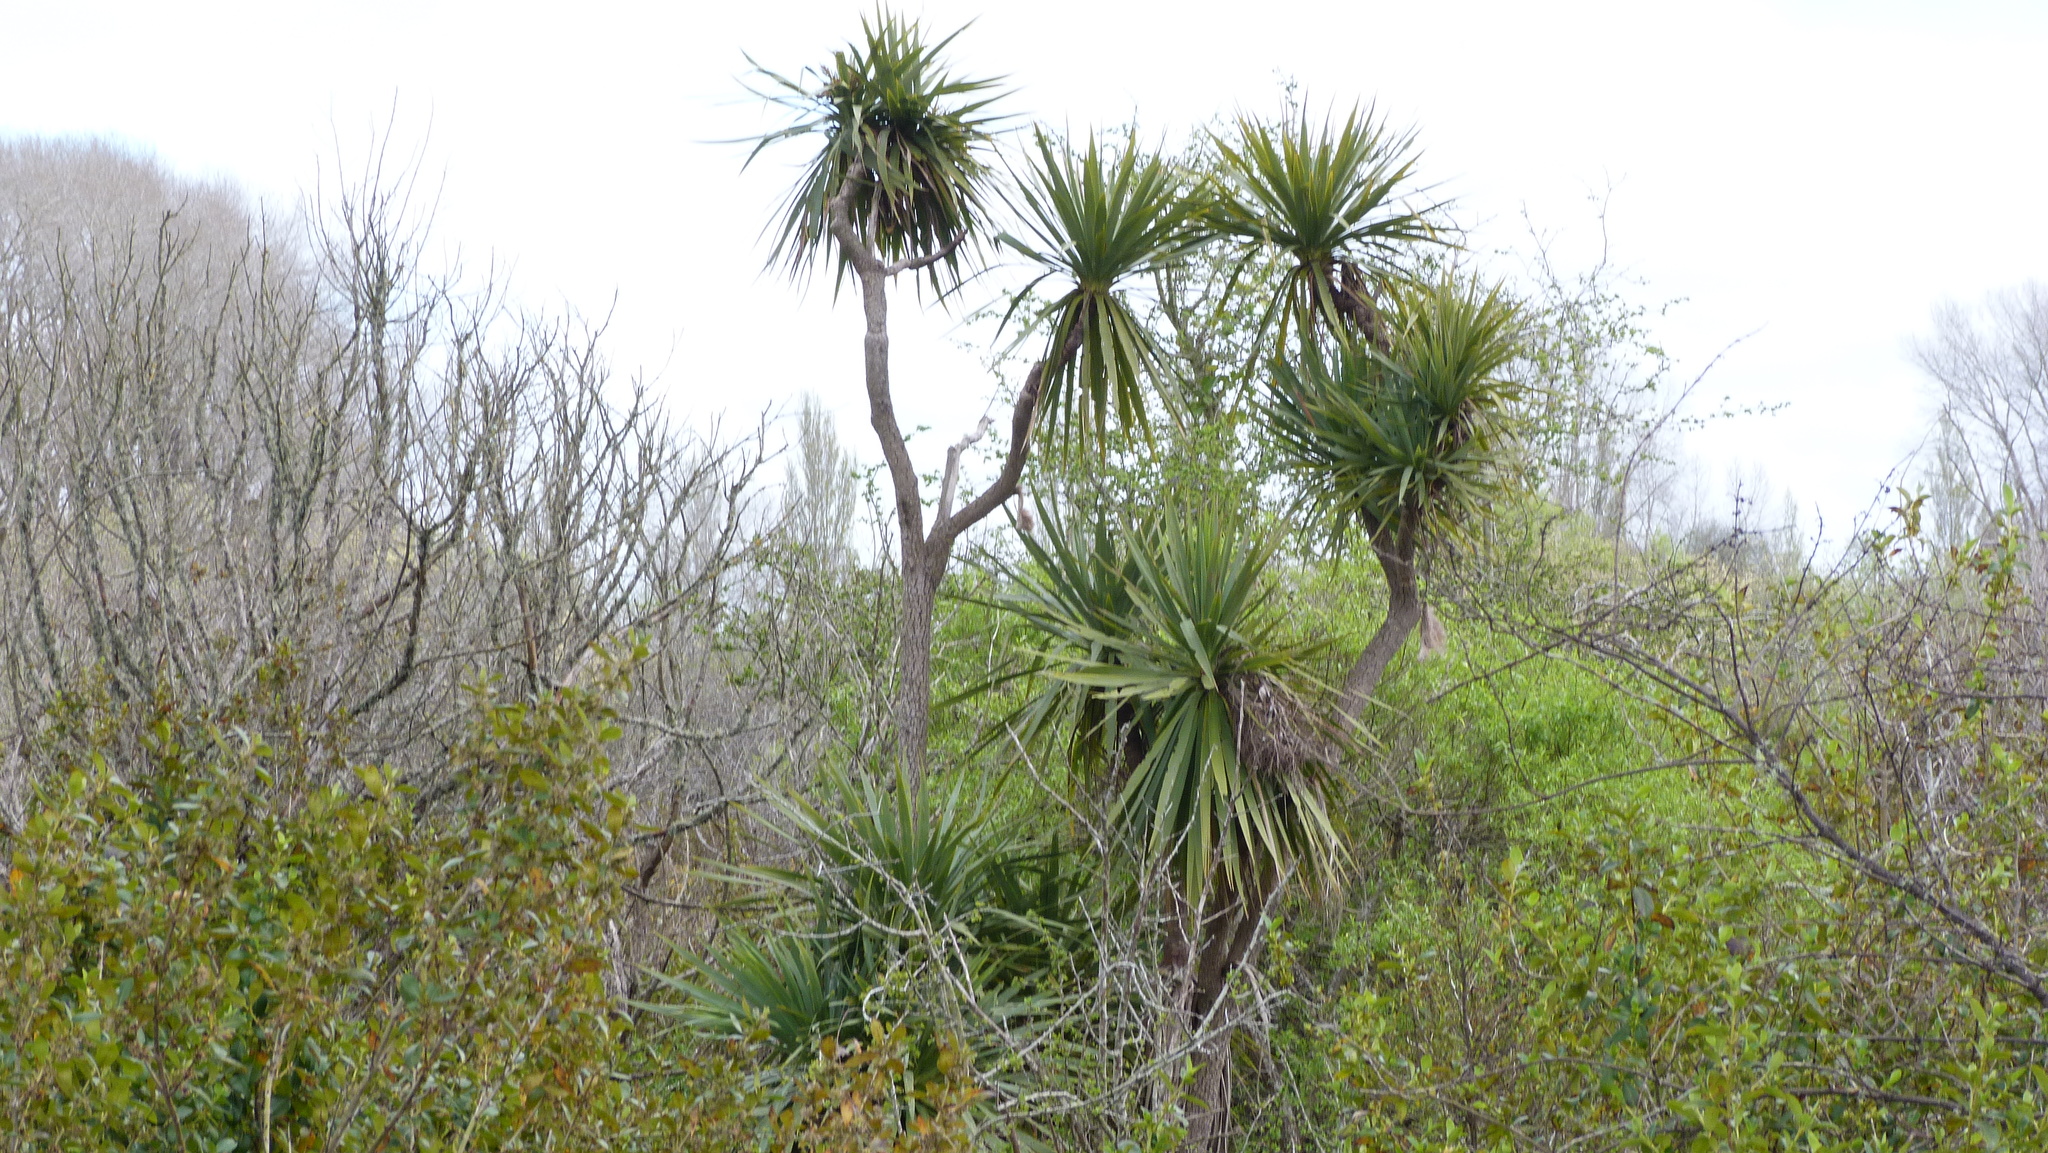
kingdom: Plantae
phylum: Tracheophyta
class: Liliopsida
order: Asparagales
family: Asparagaceae
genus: Cordyline
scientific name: Cordyline australis
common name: Cabbage-palm
